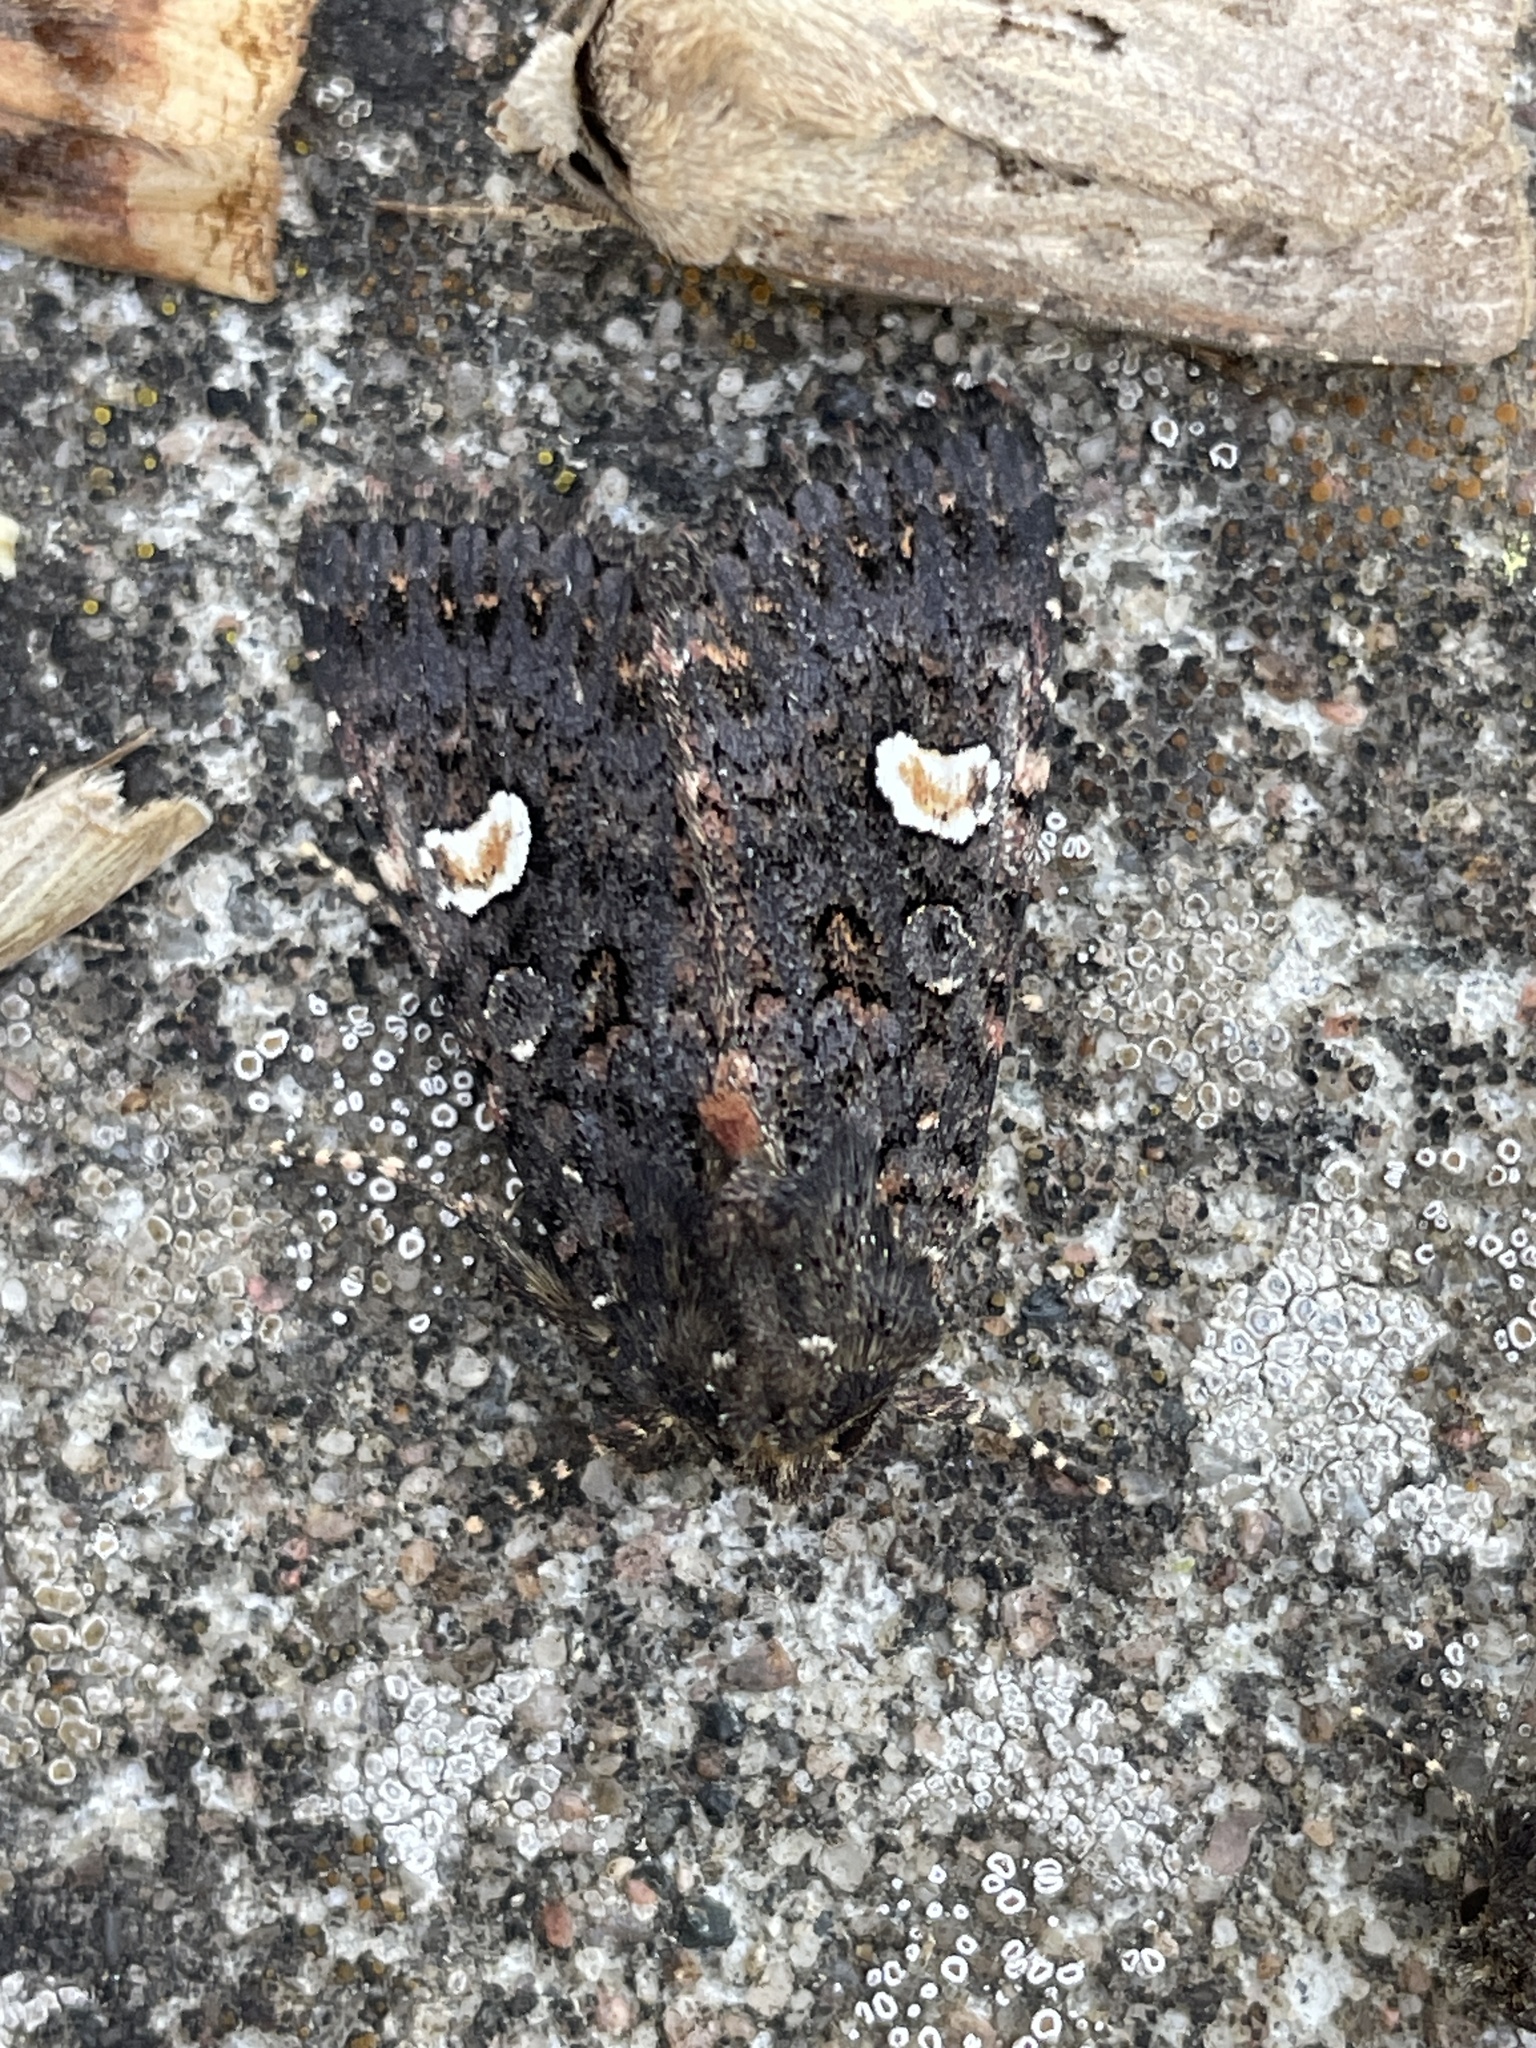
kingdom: Animalia
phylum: Arthropoda
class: Insecta
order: Lepidoptera
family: Noctuidae
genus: Melanchra
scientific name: Melanchra persicariae
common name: Dot moth
